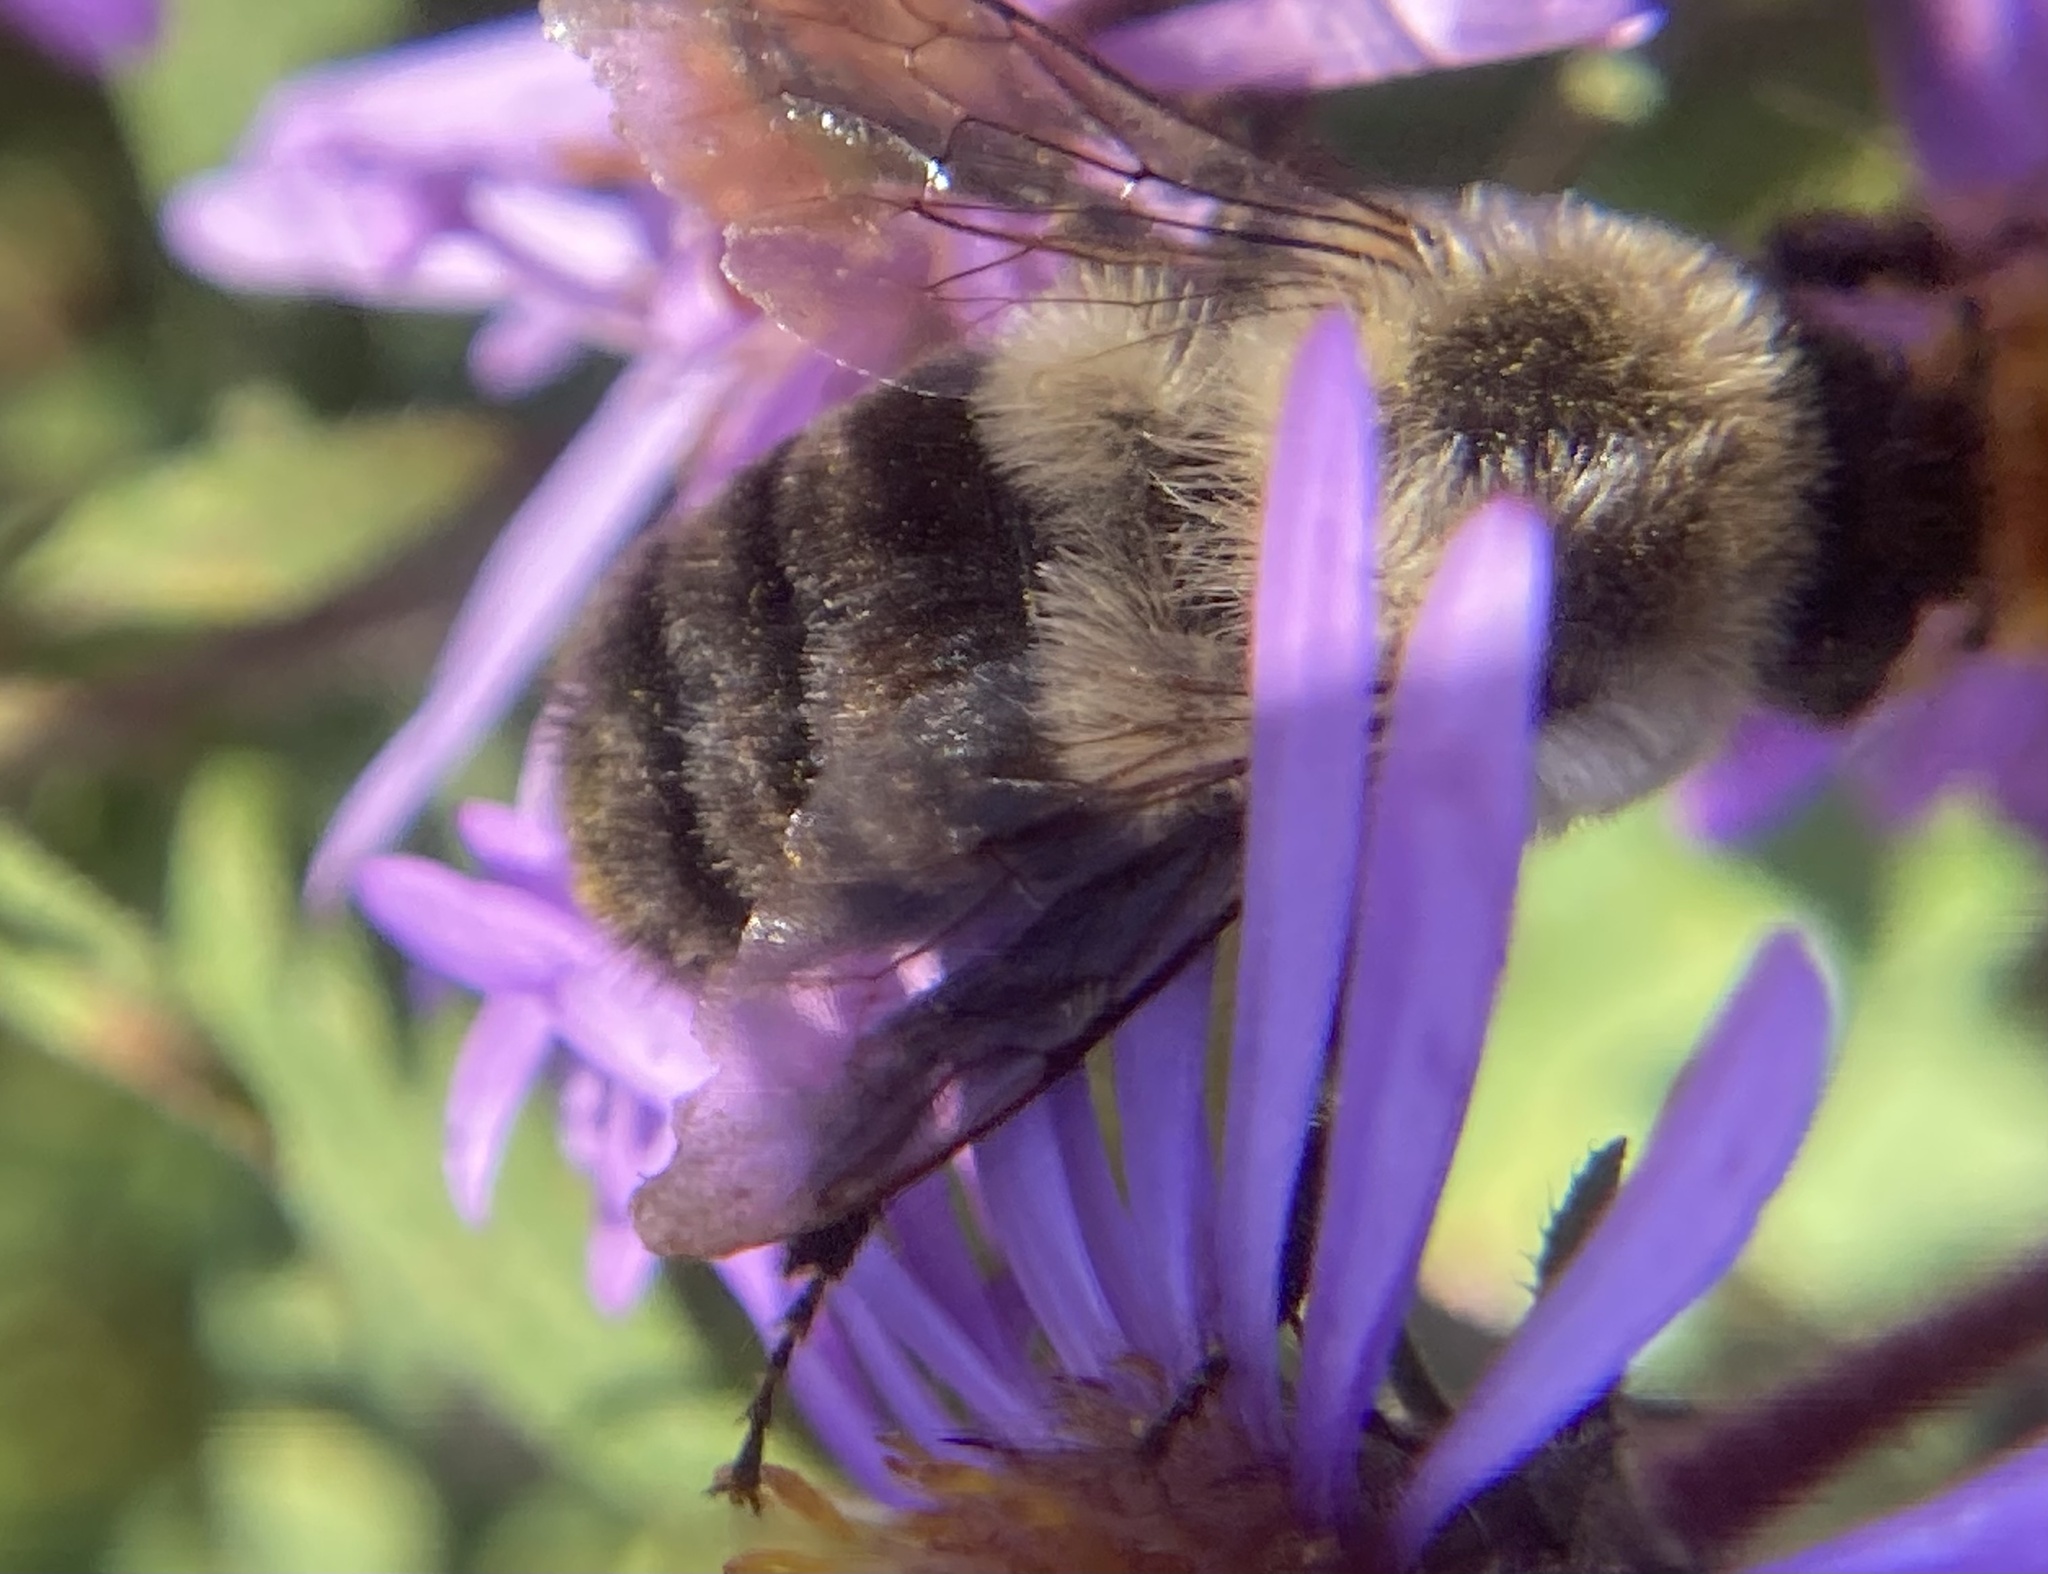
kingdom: Animalia
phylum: Arthropoda
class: Insecta
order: Hymenoptera
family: Apidae
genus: Bombus
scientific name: Bombus impatiens
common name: Common eastern bumble bee
